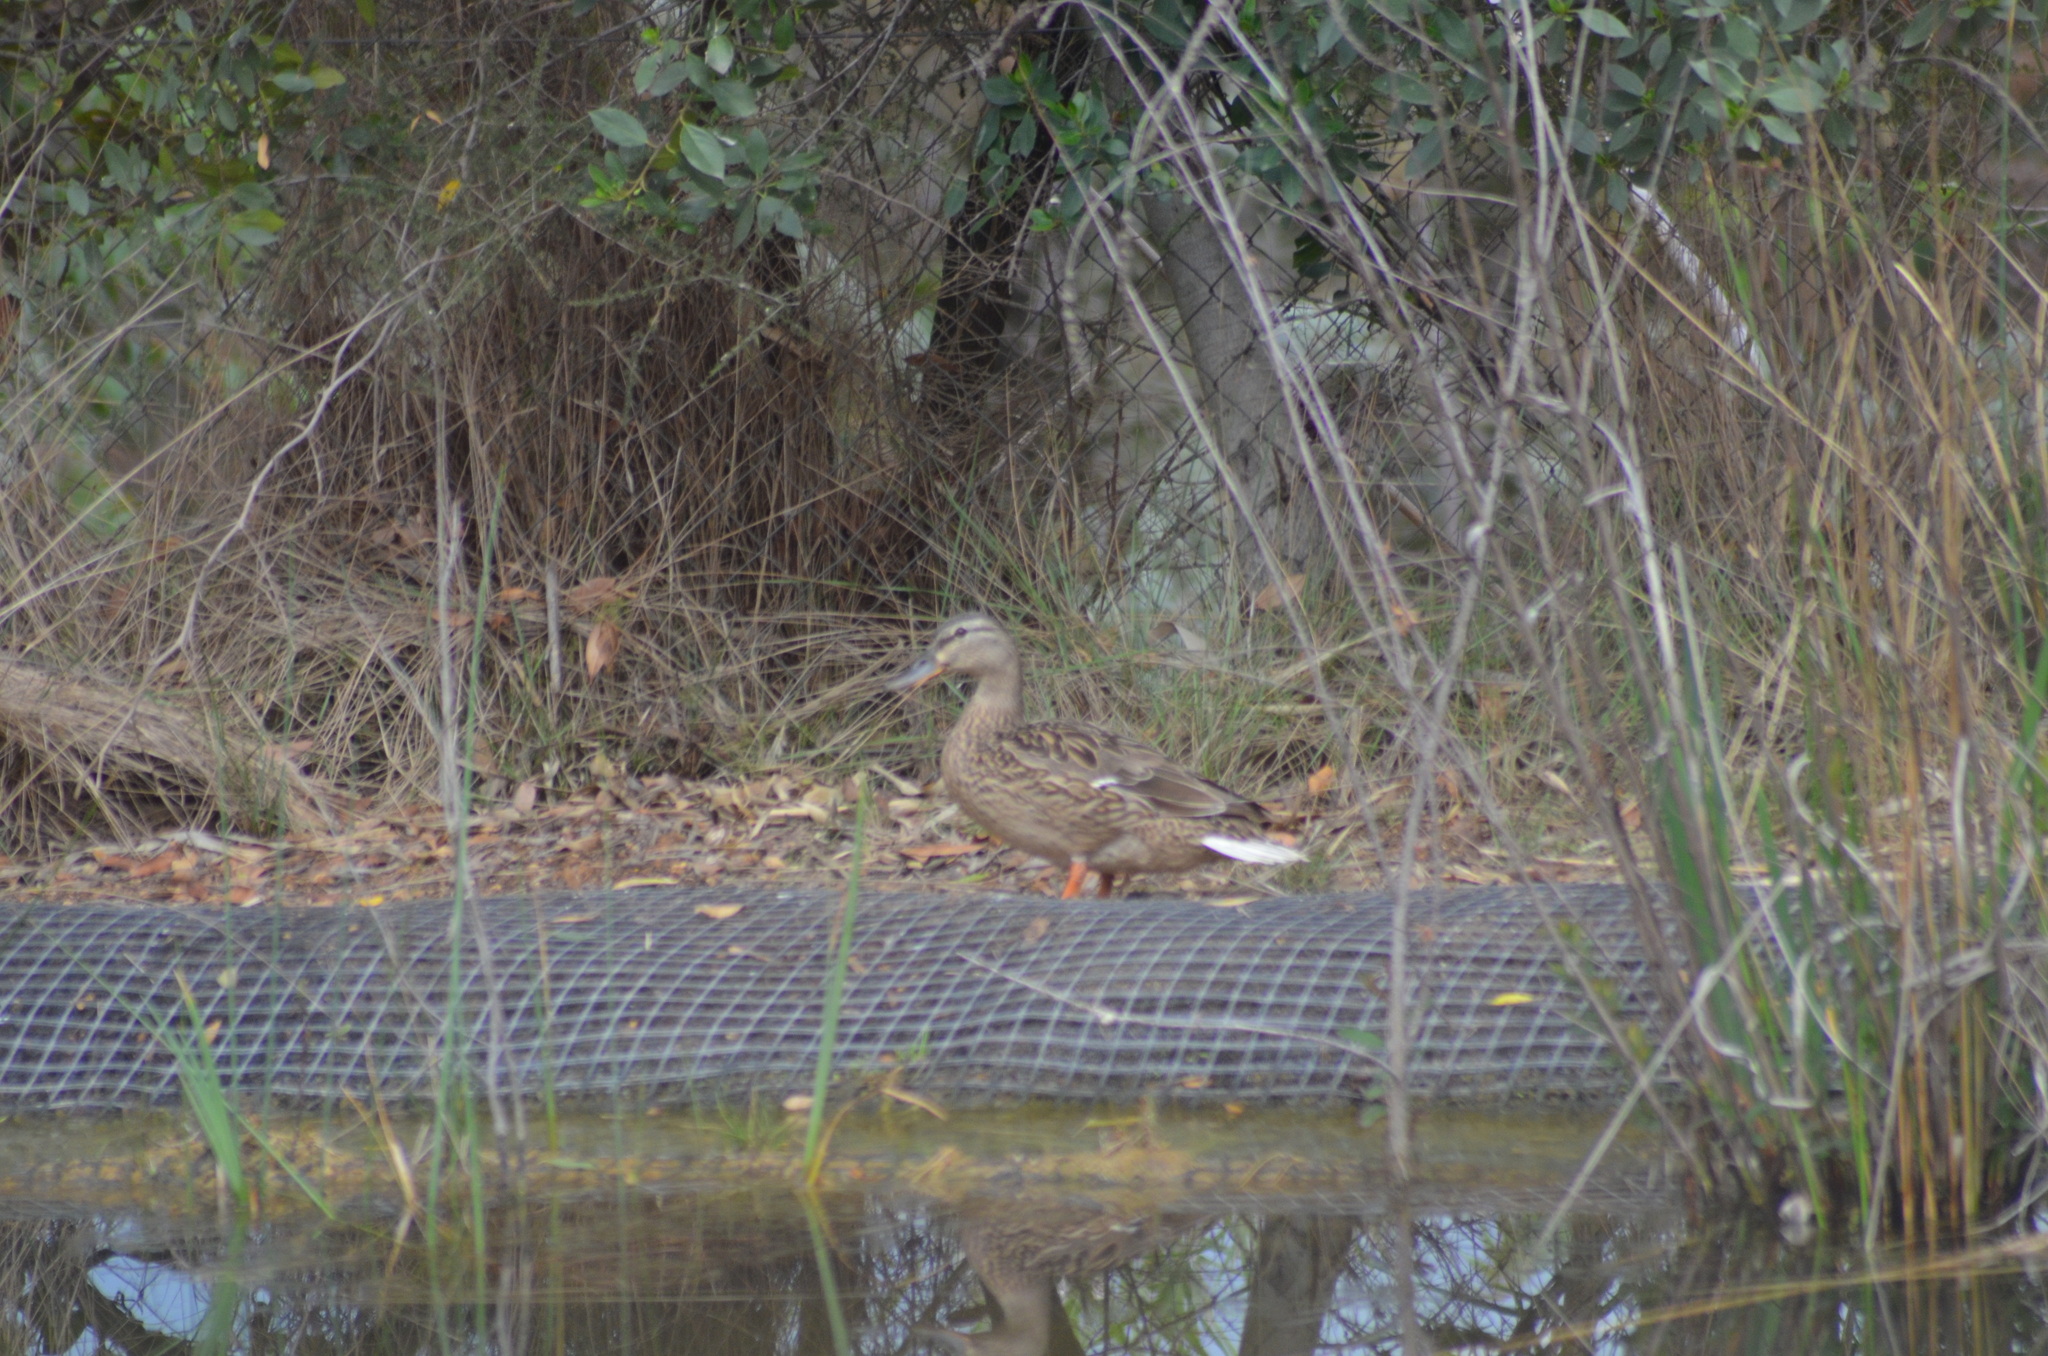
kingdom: Animalia
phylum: Chordata
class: Aves
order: Anseriformes
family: Anatidae
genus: Anas
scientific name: Anas platyrhynchos
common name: Mallard
